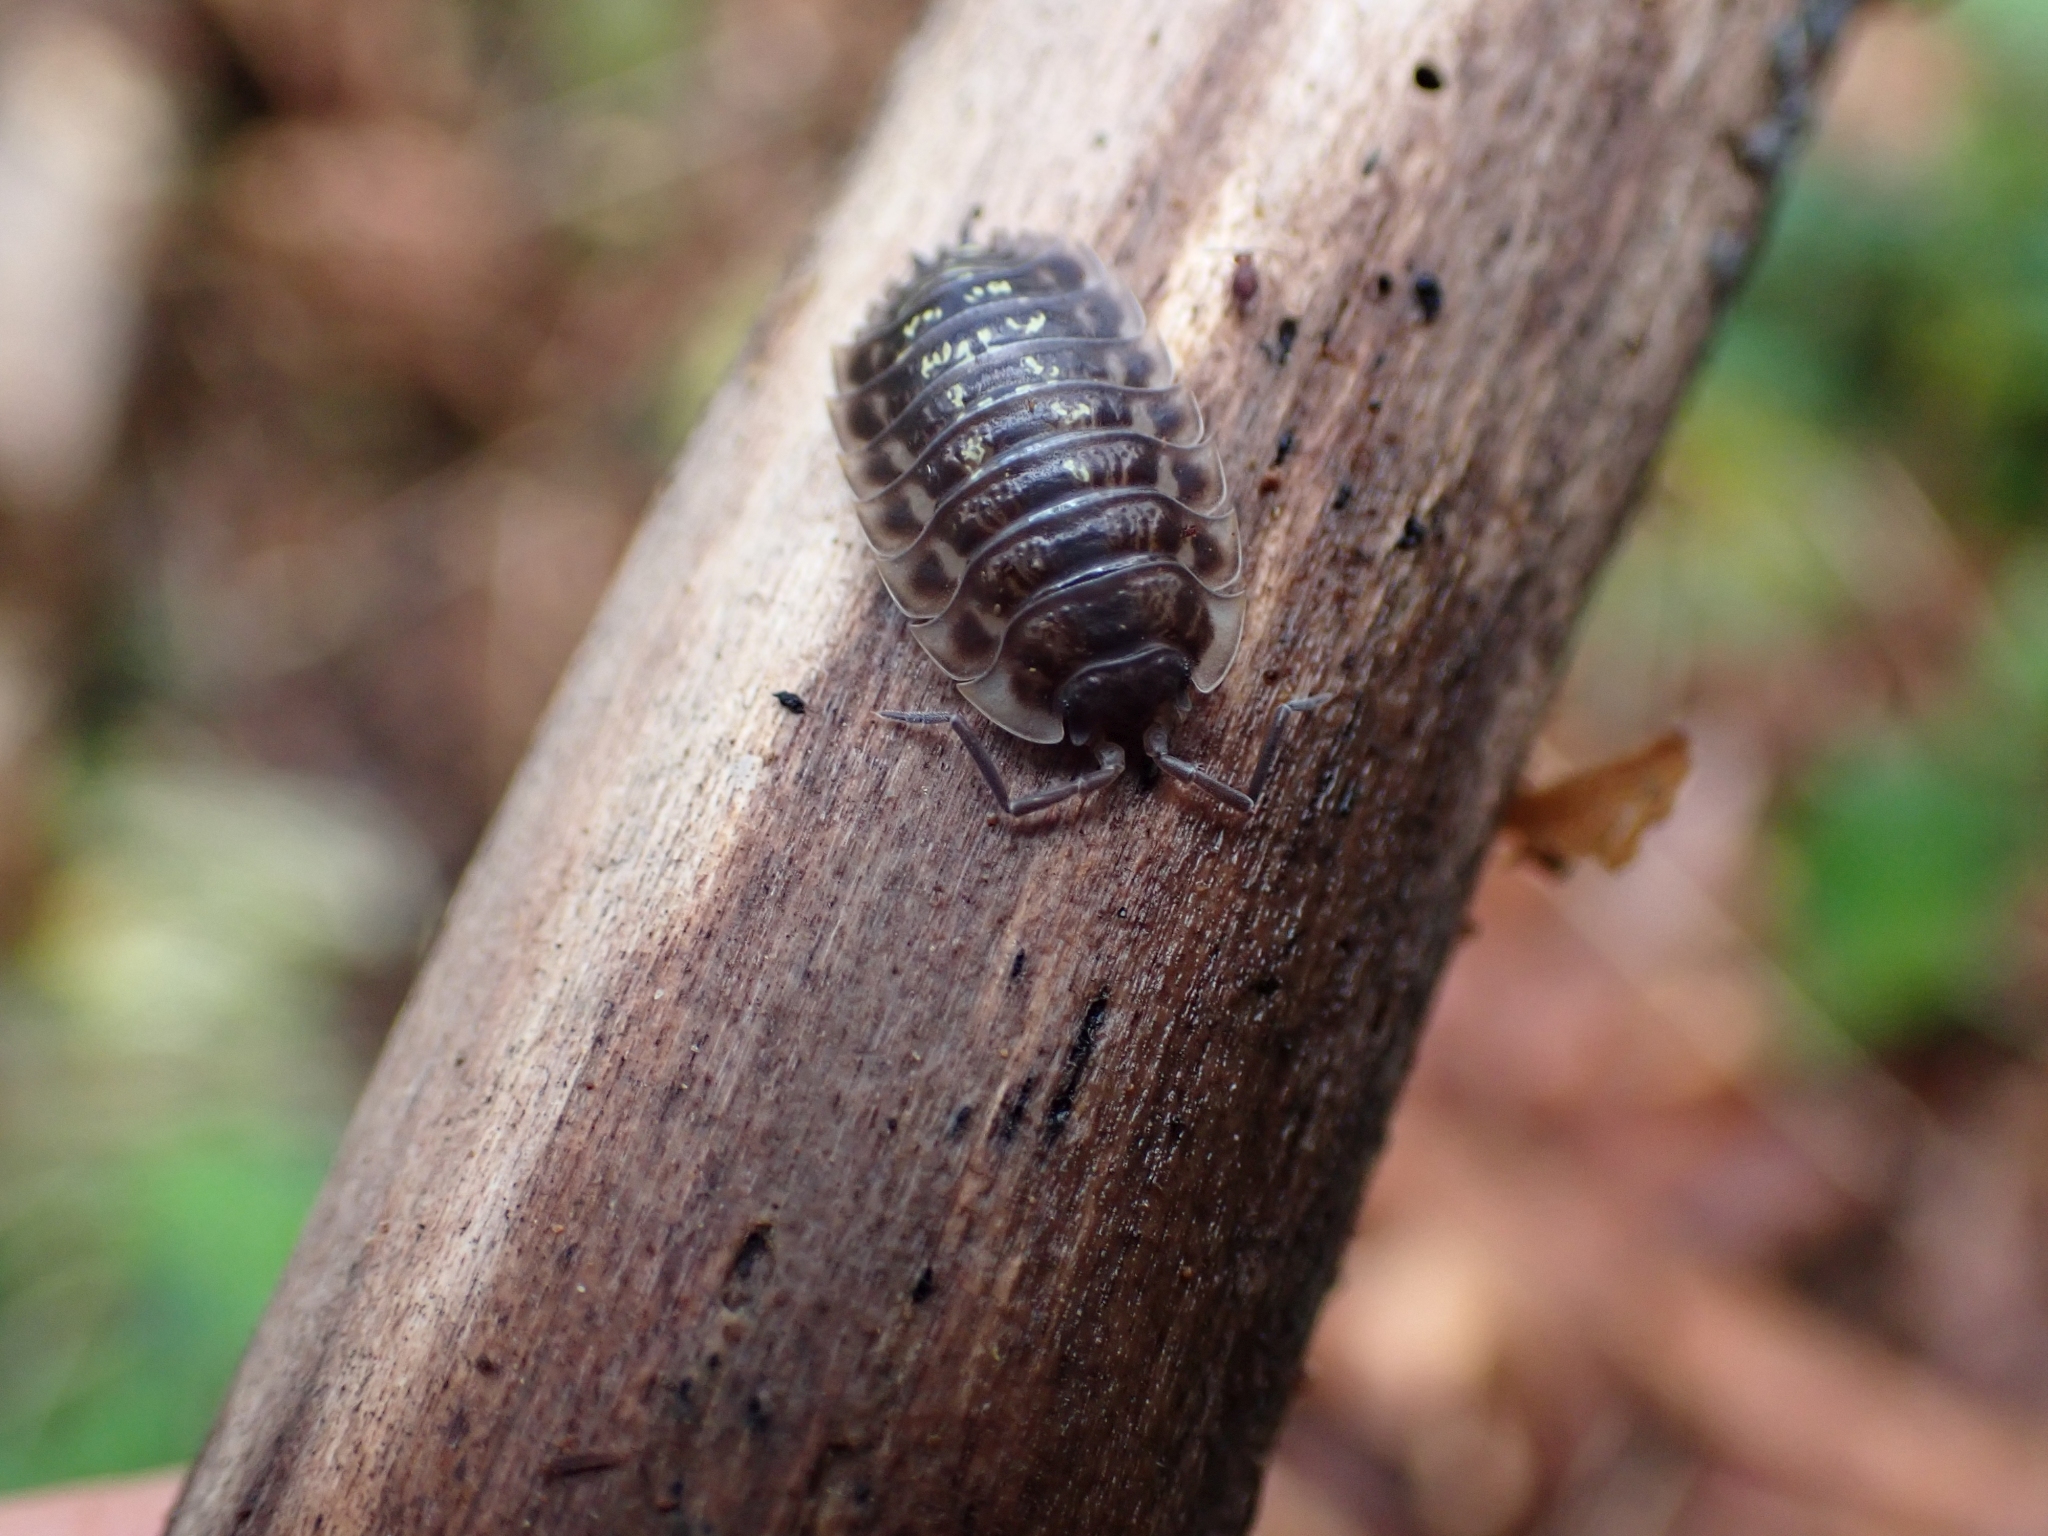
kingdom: Animalia
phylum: Arthropoda
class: Malacostraca
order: Isopoda
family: Oniscidae
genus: Oniscus
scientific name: Oniscus asellus
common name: Common shiny woodlouse
